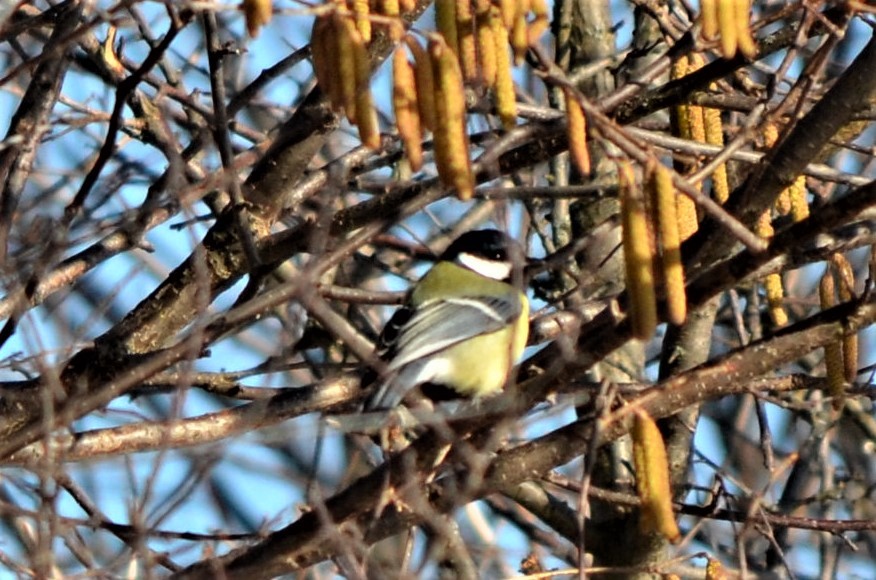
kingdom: Animalia
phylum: Chordata
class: Aves
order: Passeriformes
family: Paridae
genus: Parus
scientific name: Parus major
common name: Great tit
